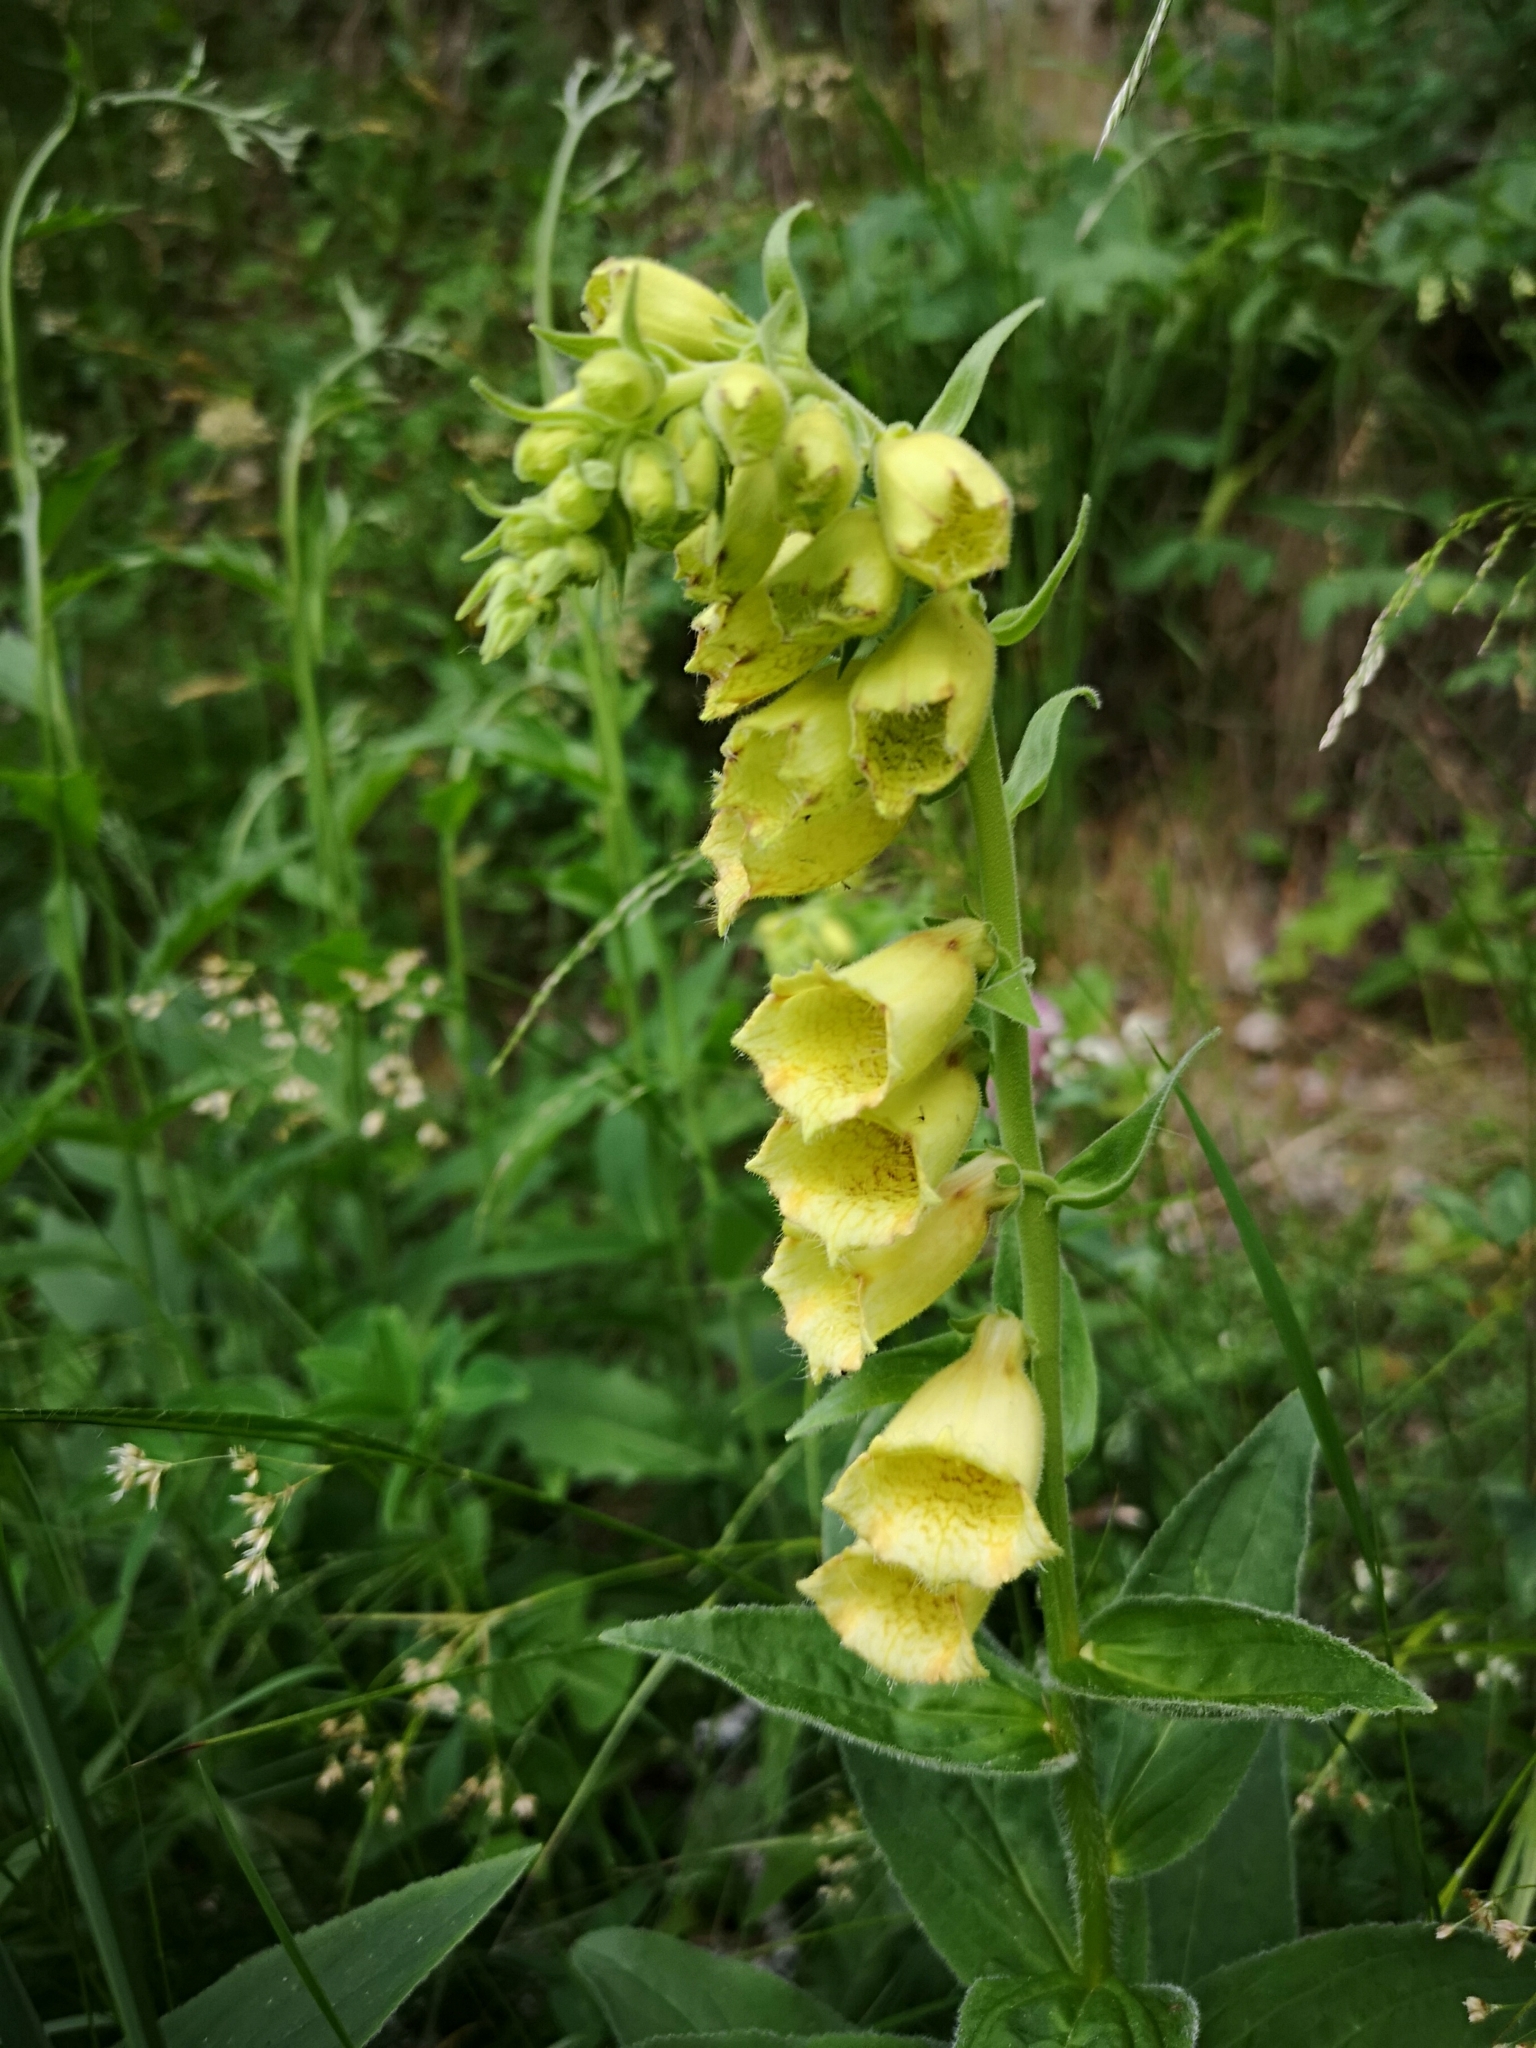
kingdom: Plantae
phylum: Tracheophyta
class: Magnoliopsida
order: Lamiales
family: Plantaginaceae
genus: Digitalis
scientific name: Digitalis grandiflora
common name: Yellow foxglove
